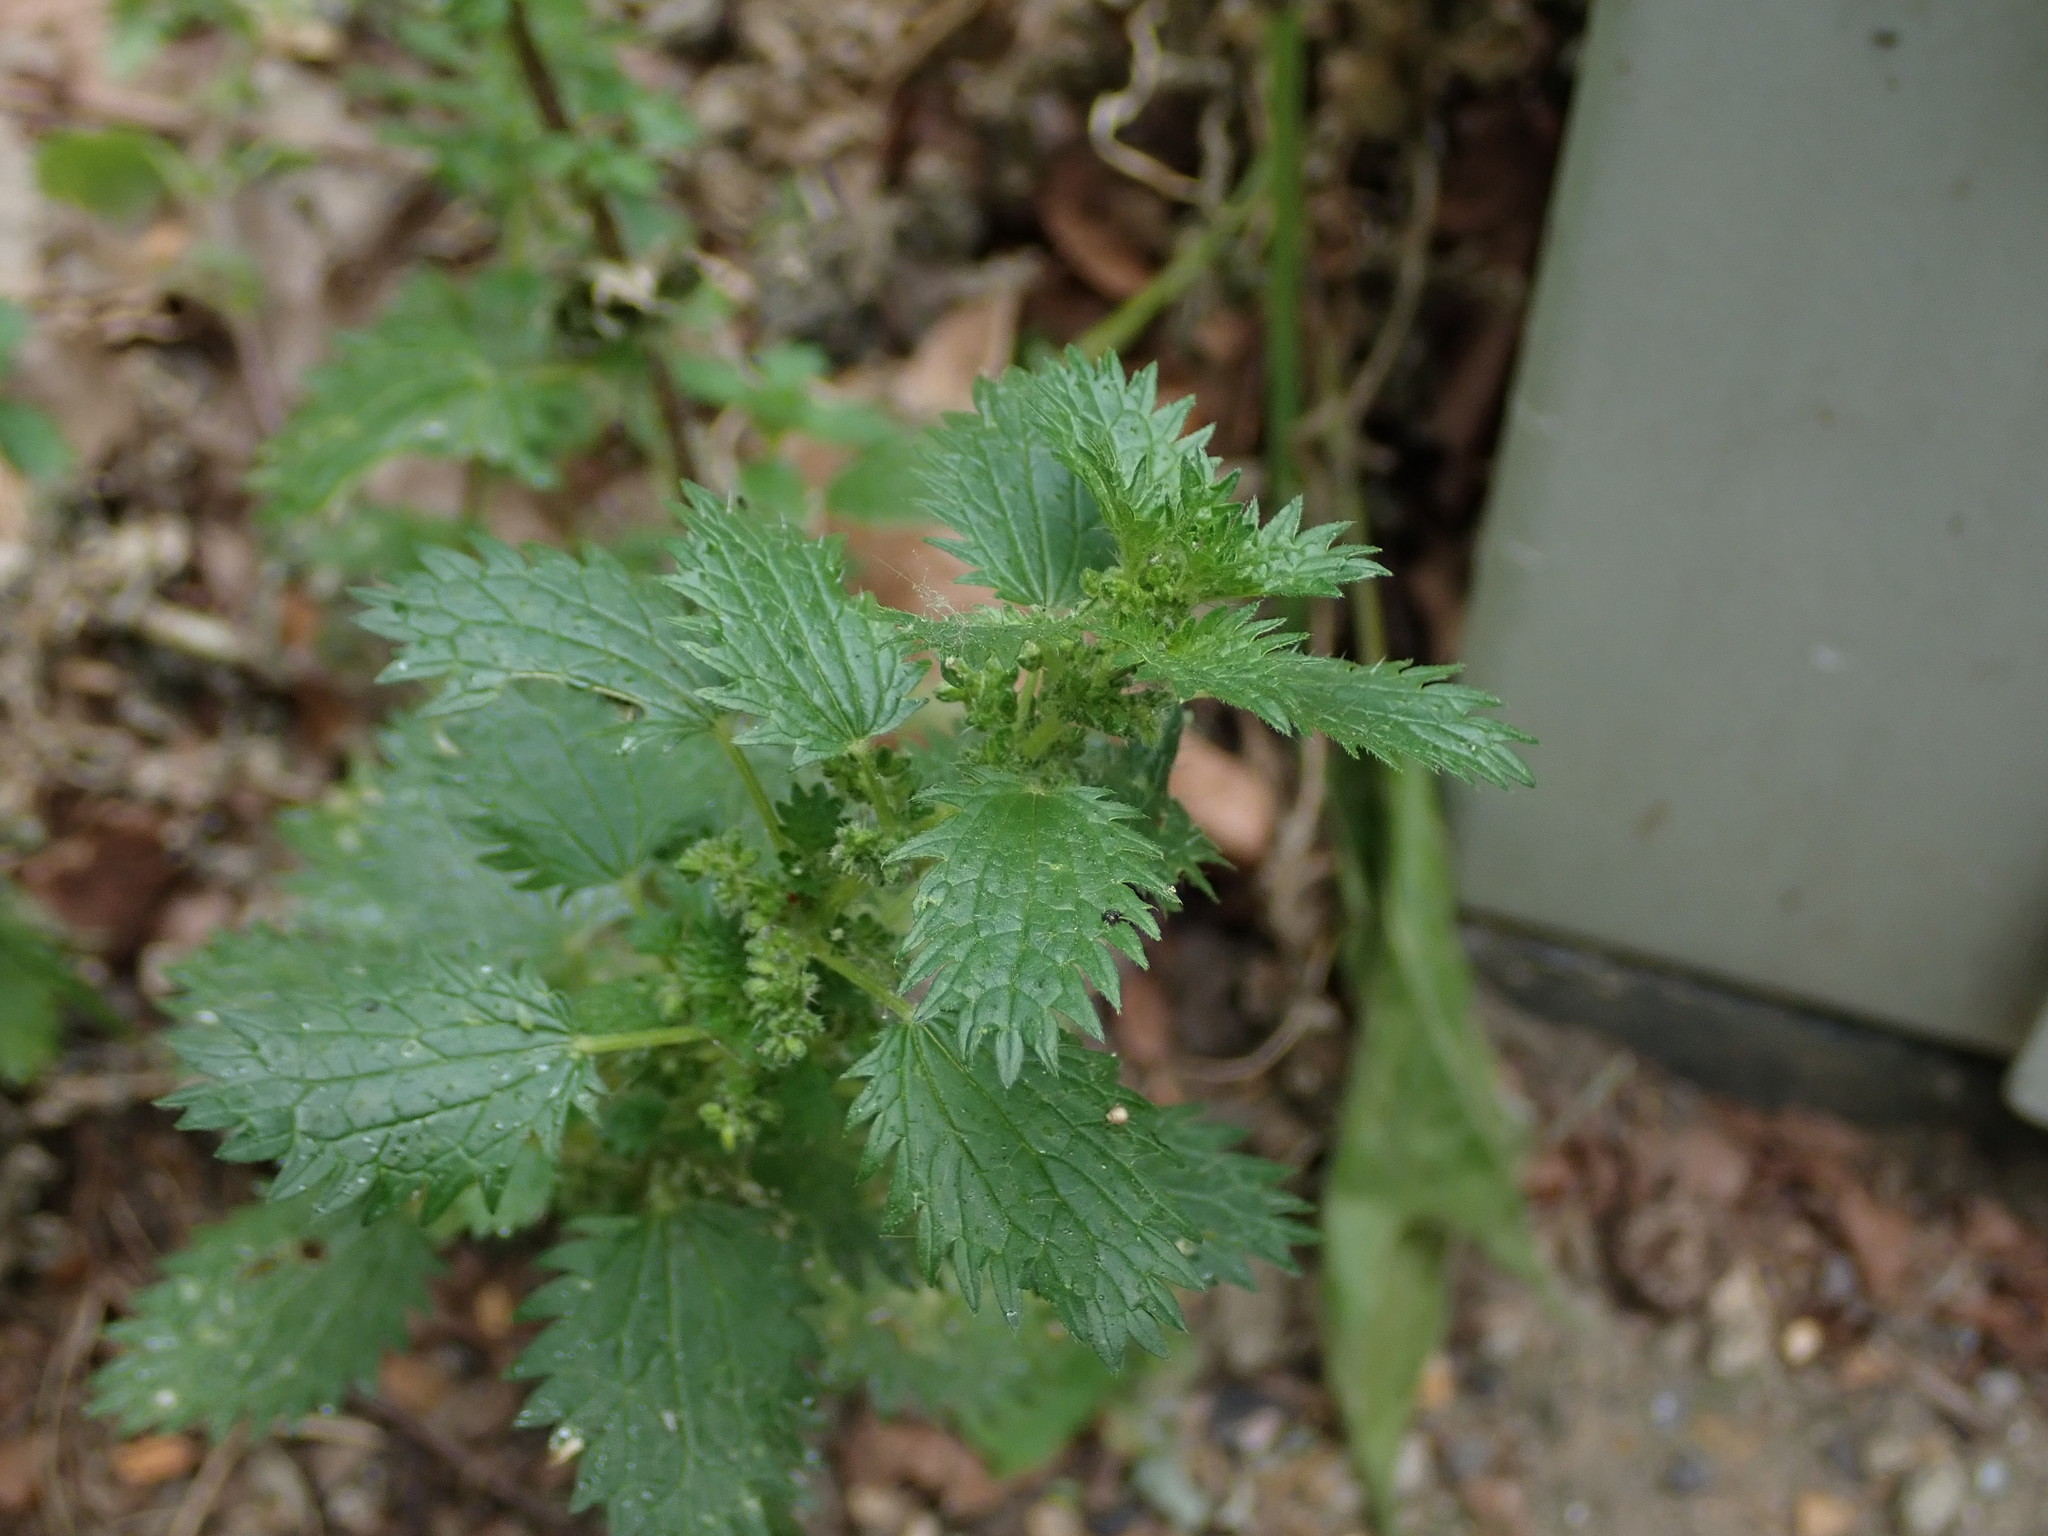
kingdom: Plantae
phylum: Tracheophyta
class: Magnoliopsida
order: Rosales
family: Urticaceae
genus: Urtica
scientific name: Urtica urens
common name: Dwarf nettle
